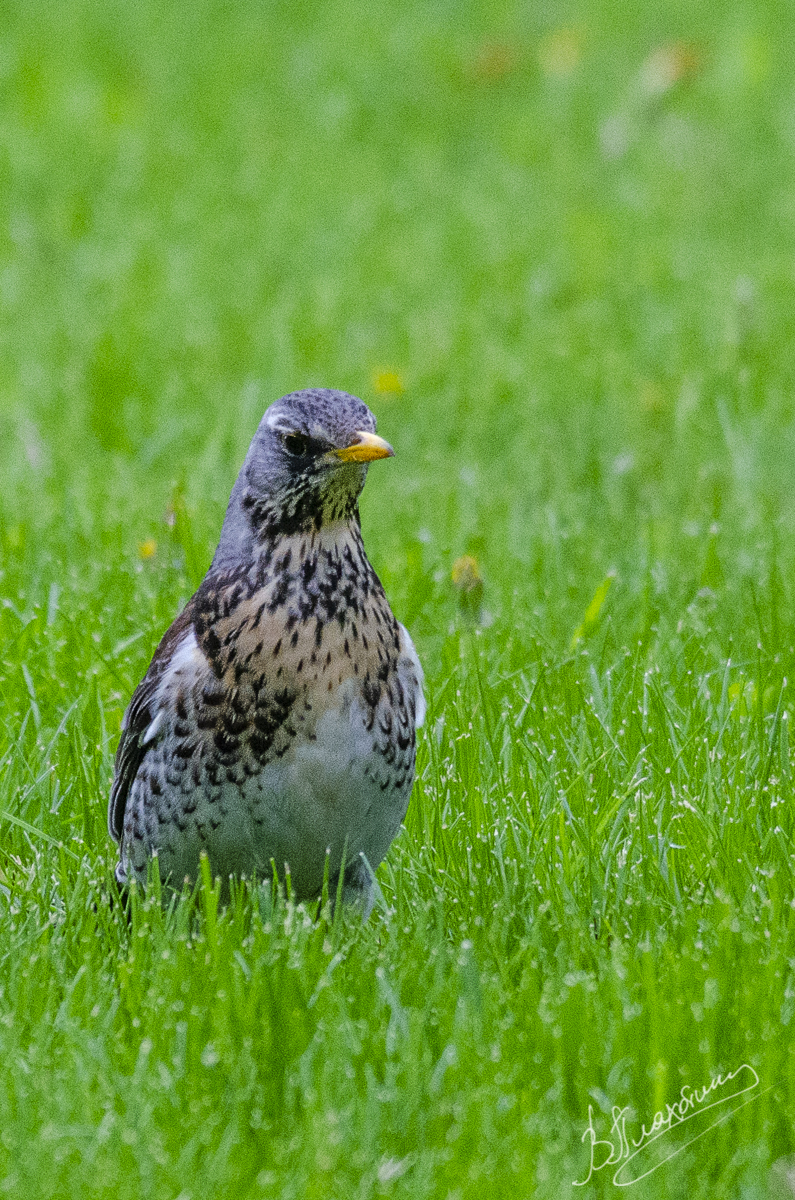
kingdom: Animalia
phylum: Chordata
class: Aves
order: Passeriformes
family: Turdidae
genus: Turdus
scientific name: Turdus pilaris
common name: Fieldfare
